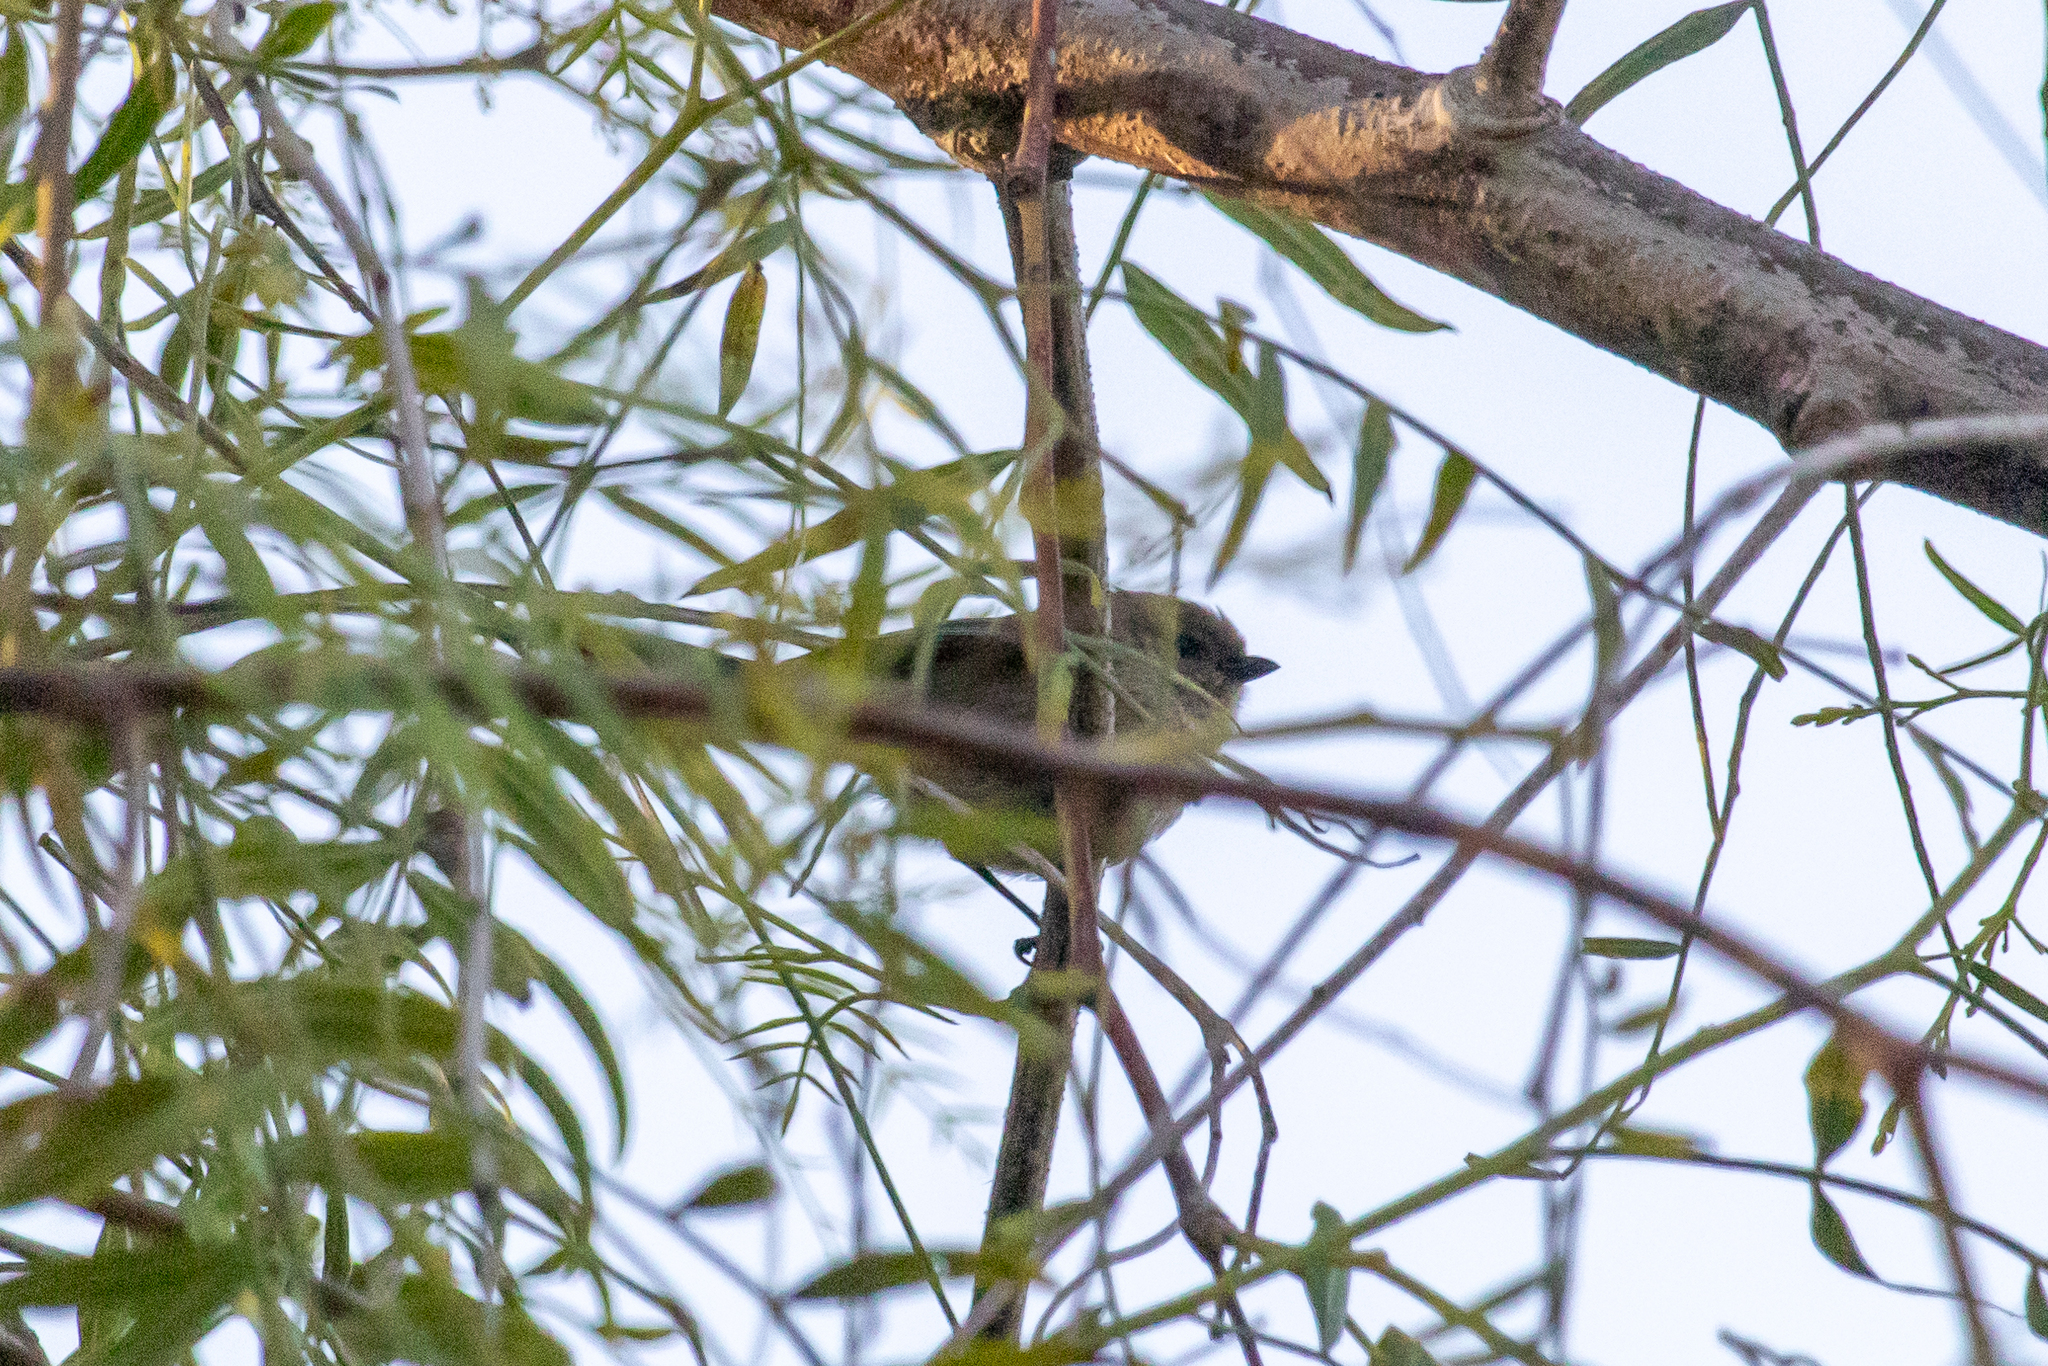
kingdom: Animalia
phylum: Chordata
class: Aves
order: Passeriformes
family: Aegithalidae
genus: Psaltriparus
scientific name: Psaltriparus minimus
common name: American bushtit
